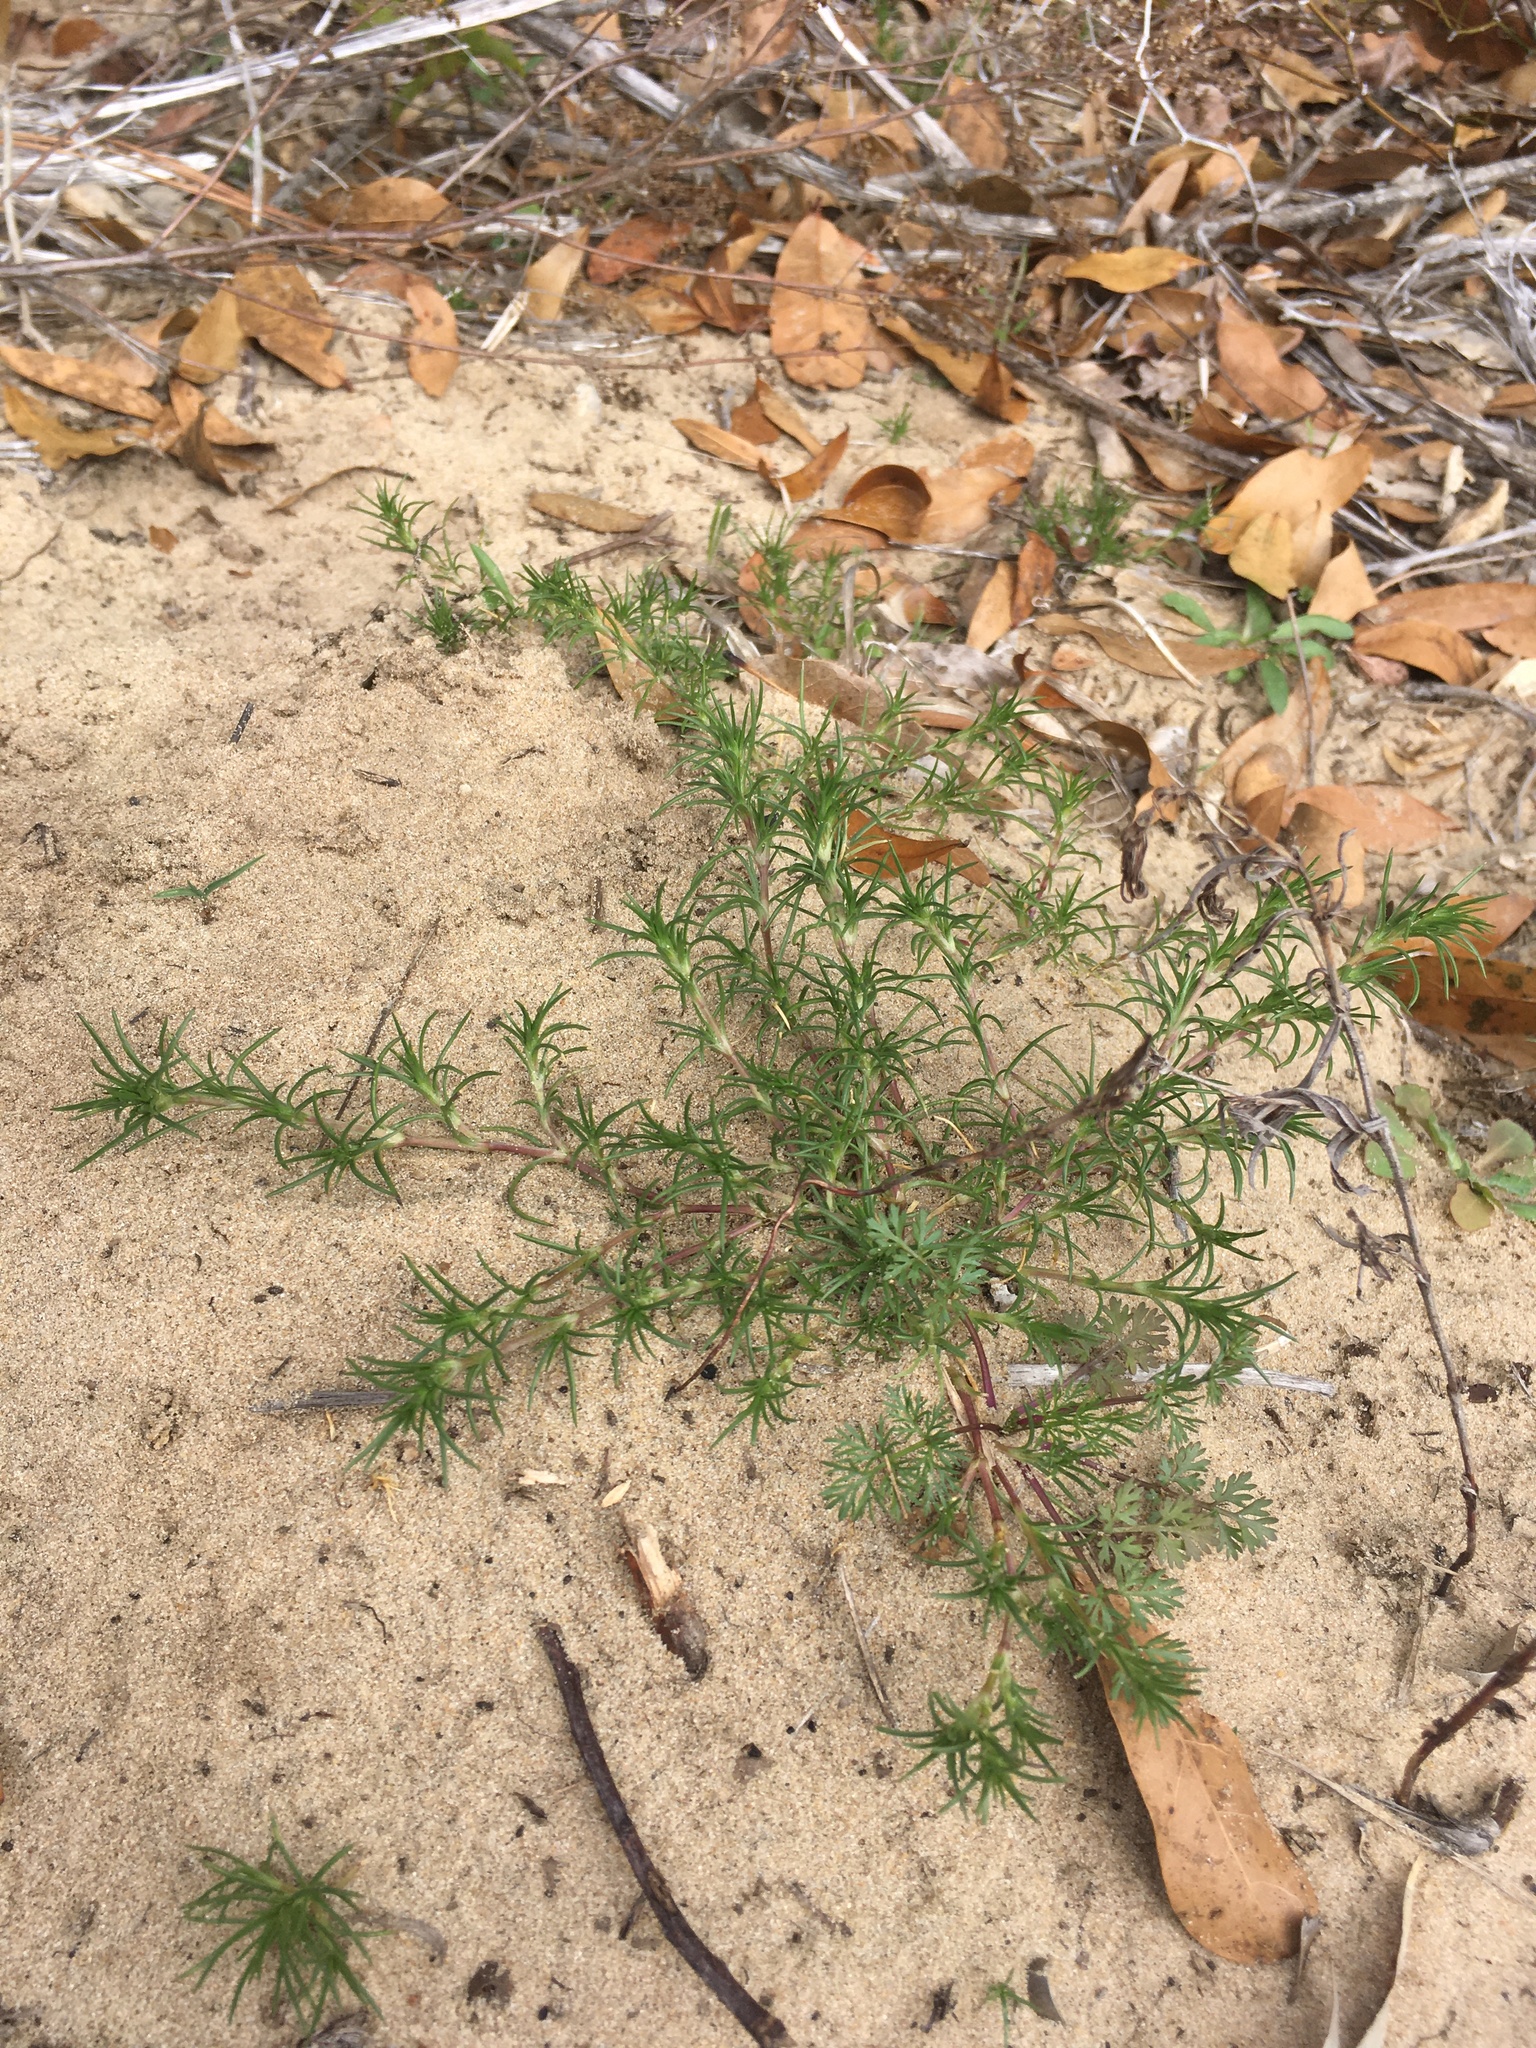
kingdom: Plantae
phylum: Tracheophyta
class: Magnoliopsida
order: Caryophyllales
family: Caryophyllaceae
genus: Scleranthus
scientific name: Scleranthus annuus
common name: Annual knawel
